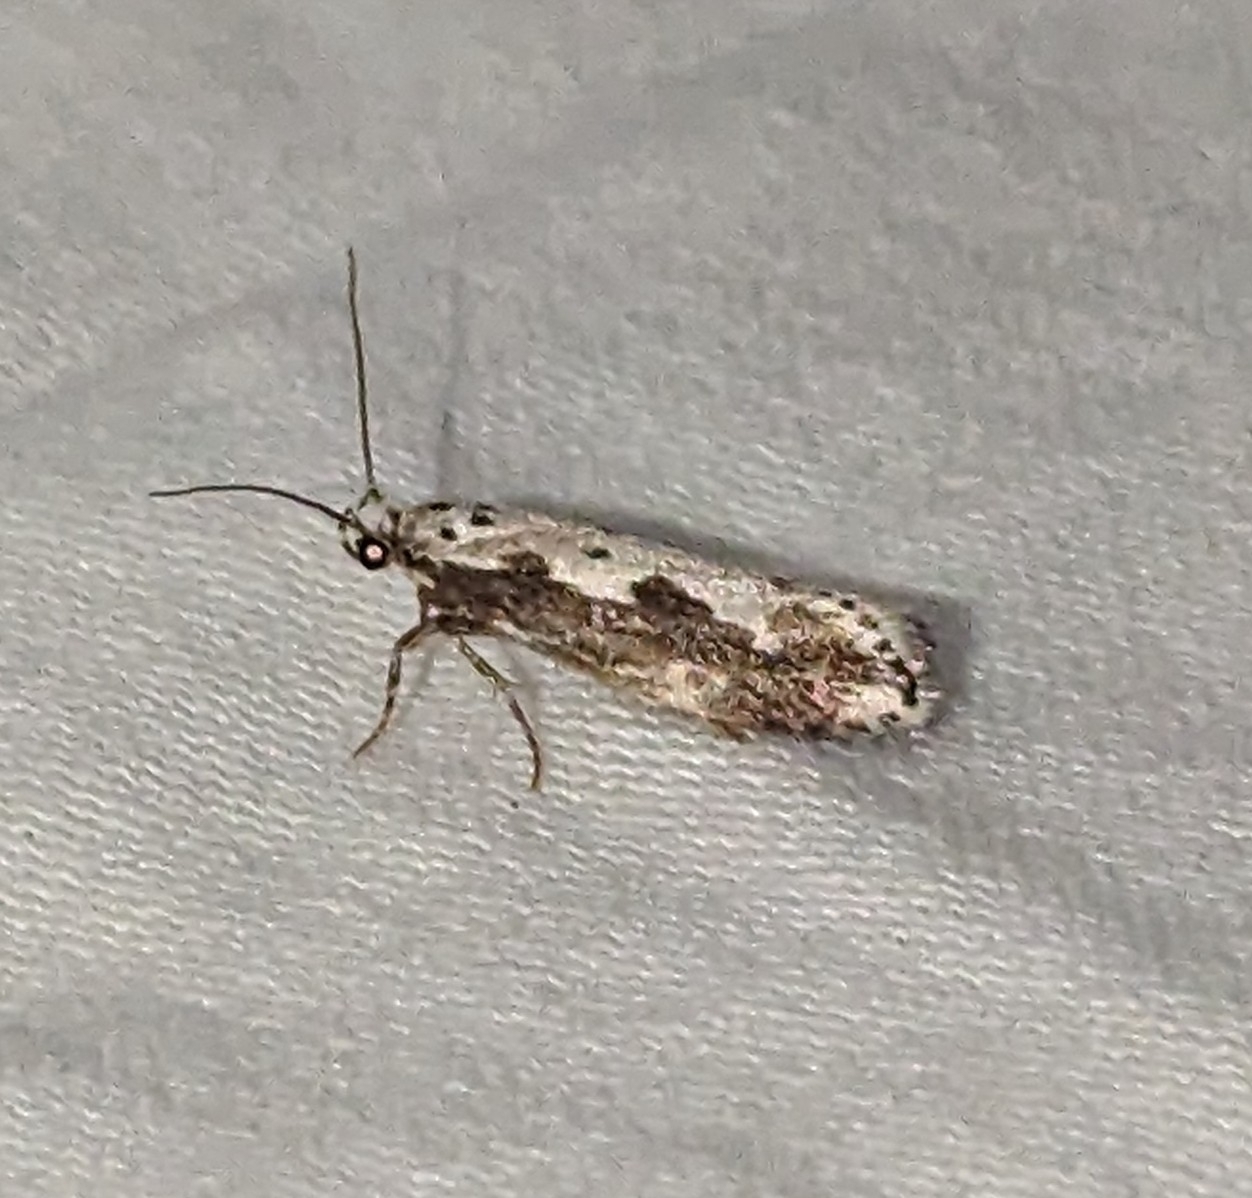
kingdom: Animalia
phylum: Arthropoda
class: Insecta
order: Lepidoptera
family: Ethmiidae
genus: Ethmia
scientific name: Ethmia marmorea
